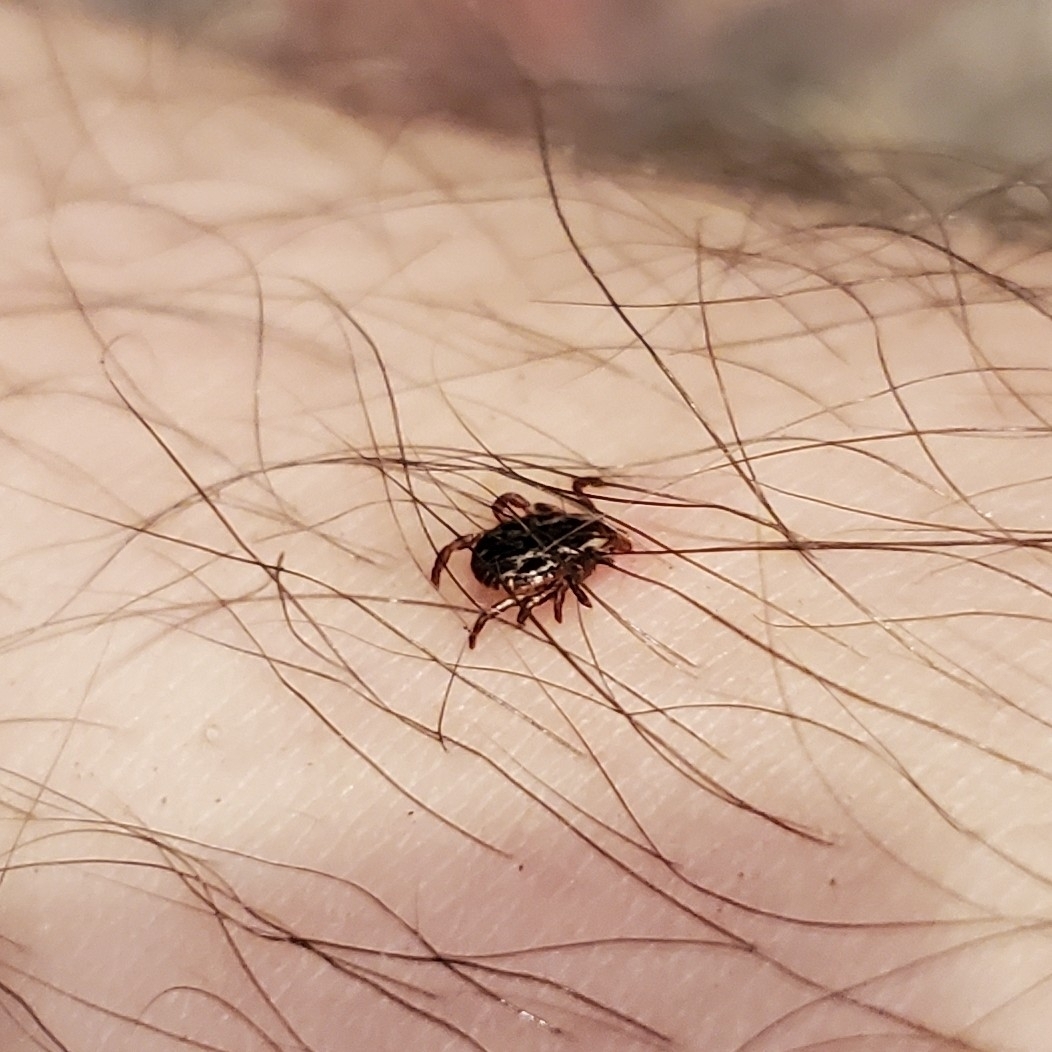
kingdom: Animalia
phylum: Arthropoda
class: Arachnida
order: Ixodida
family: Ixodidae
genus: Dermacentor
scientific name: Dermacentor variabilis
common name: American dog tick
